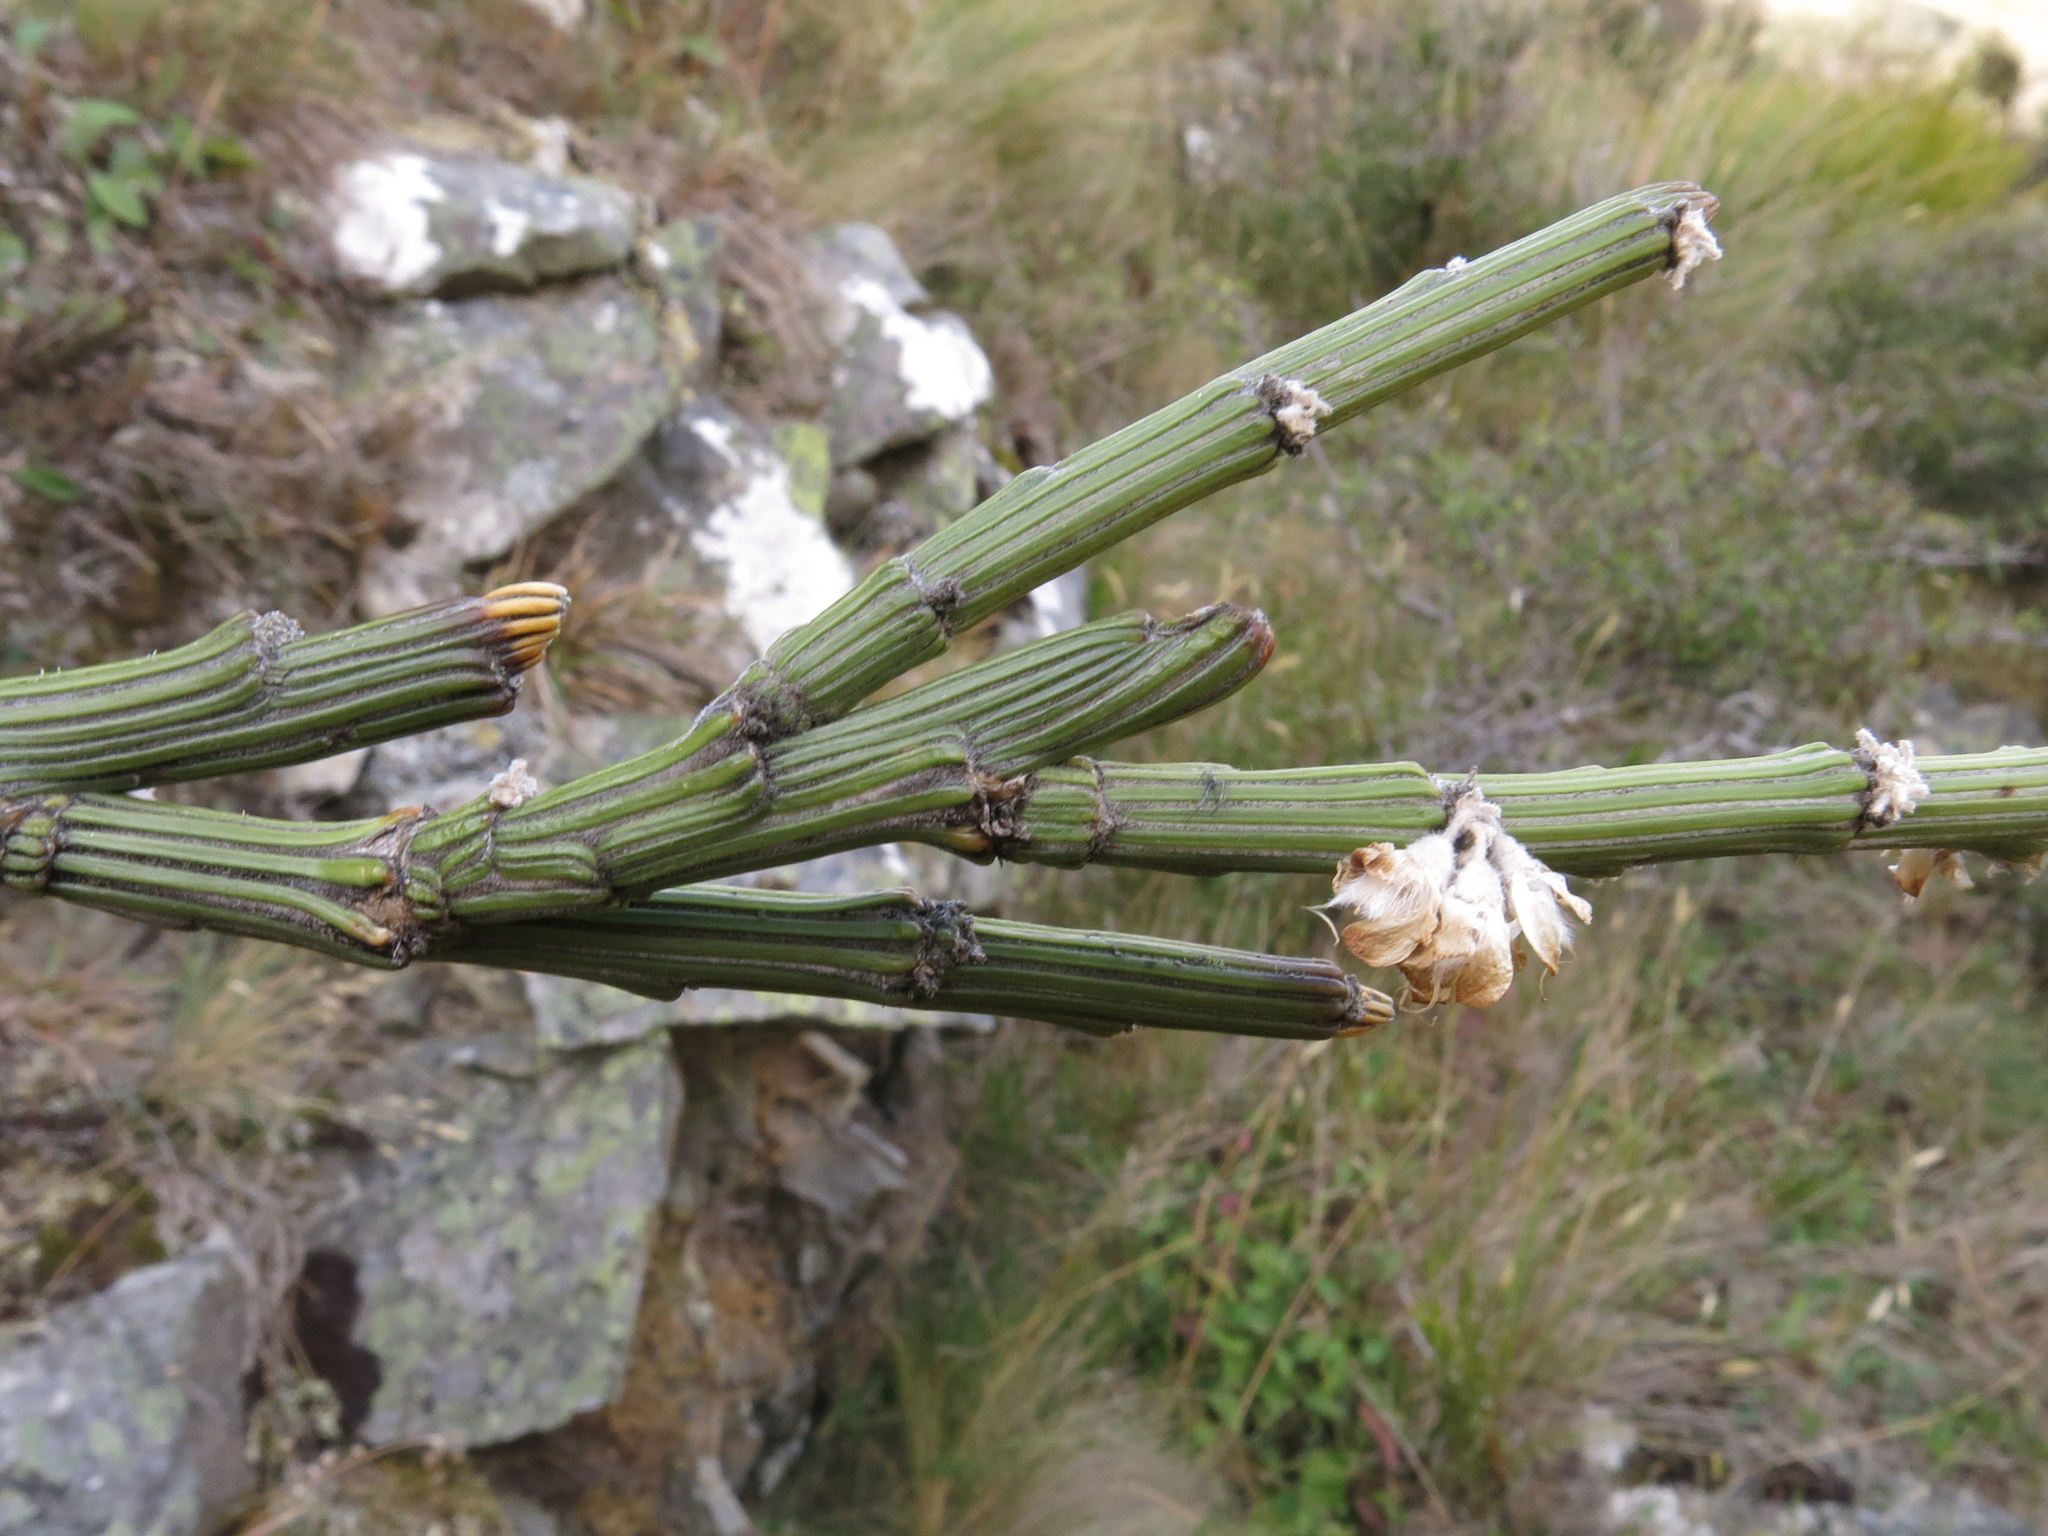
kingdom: Plantae
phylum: Tracheophyta
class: Magnoliopsida
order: Fabales
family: Fabaceae
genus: Carmichaelia
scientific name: Carmichaelia crassicaulis
